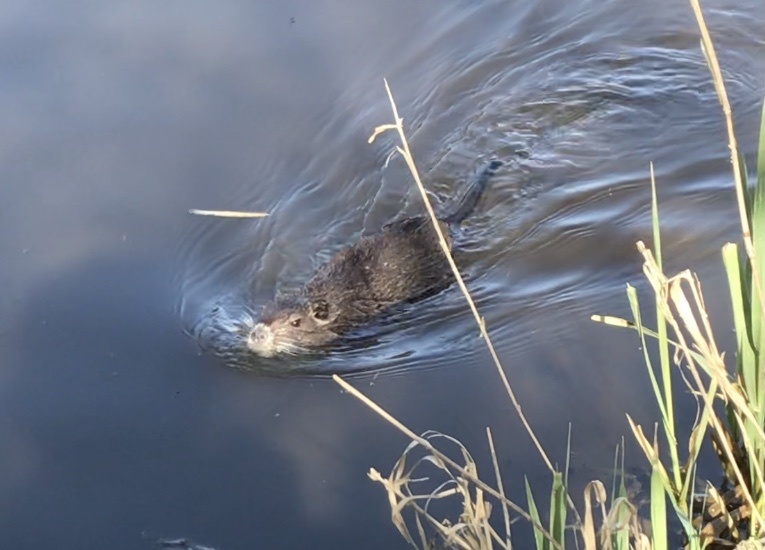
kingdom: Animalia
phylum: Chordata
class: Mammalia
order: Rodentia
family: Myocastoridae
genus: Myocastor
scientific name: Myocastor coypus
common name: Coypu
